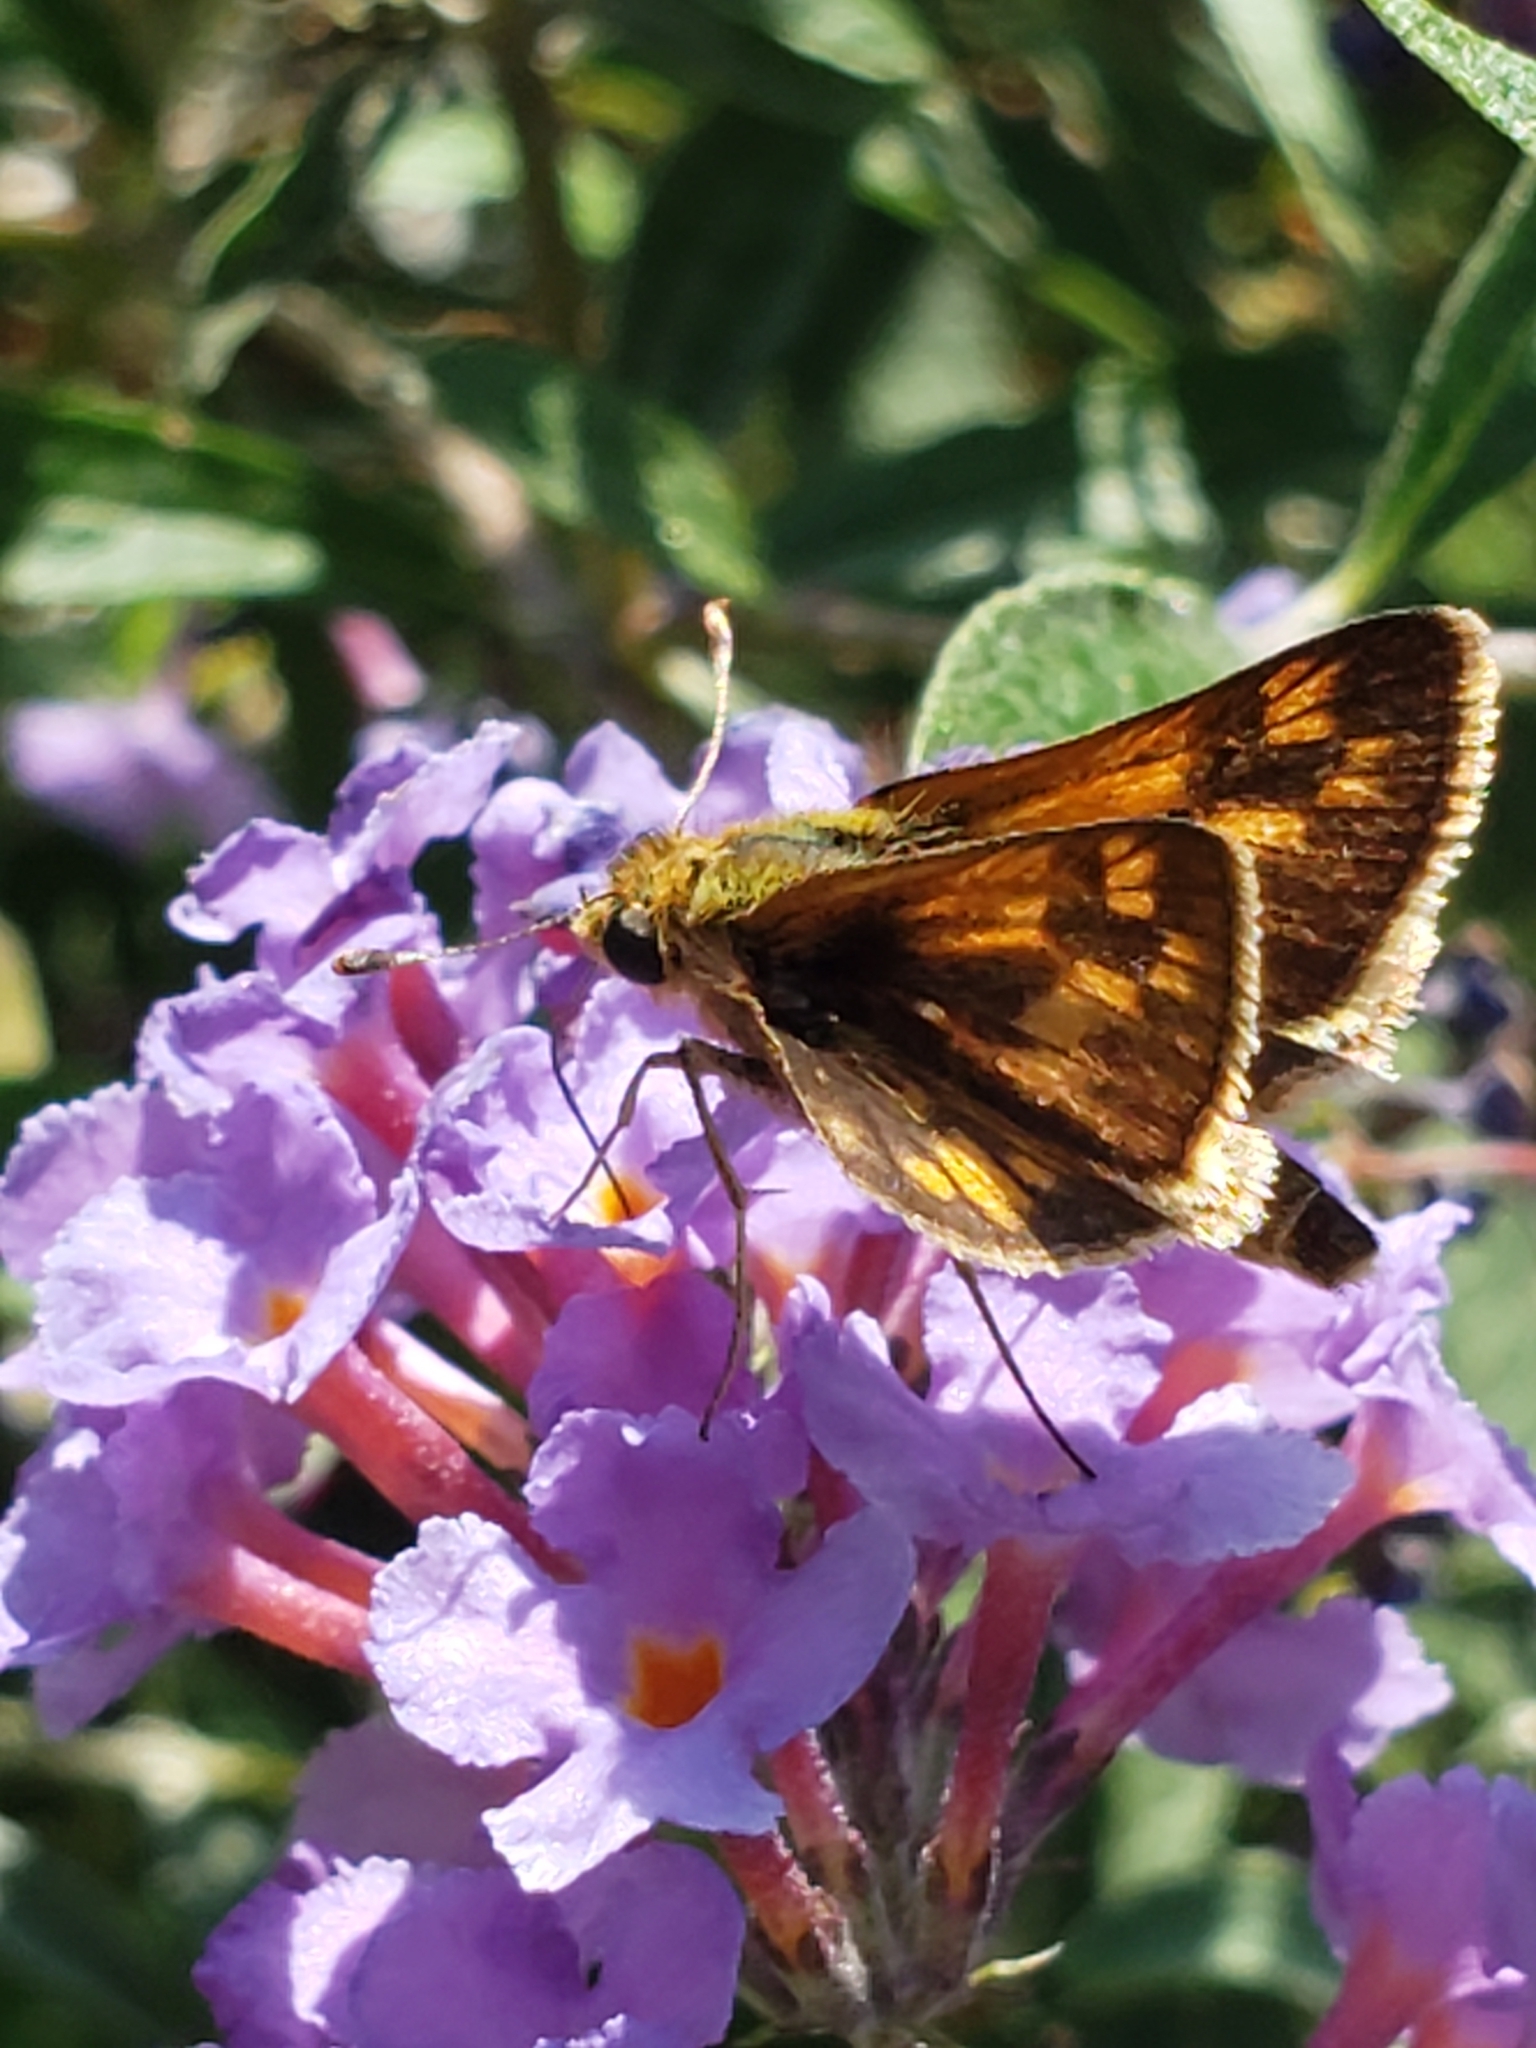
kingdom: Animalia
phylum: Arthropoda
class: Insecta
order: Lepidoptera
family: Hesperiidae
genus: Polites
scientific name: Polites coras
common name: Peck's skipper
